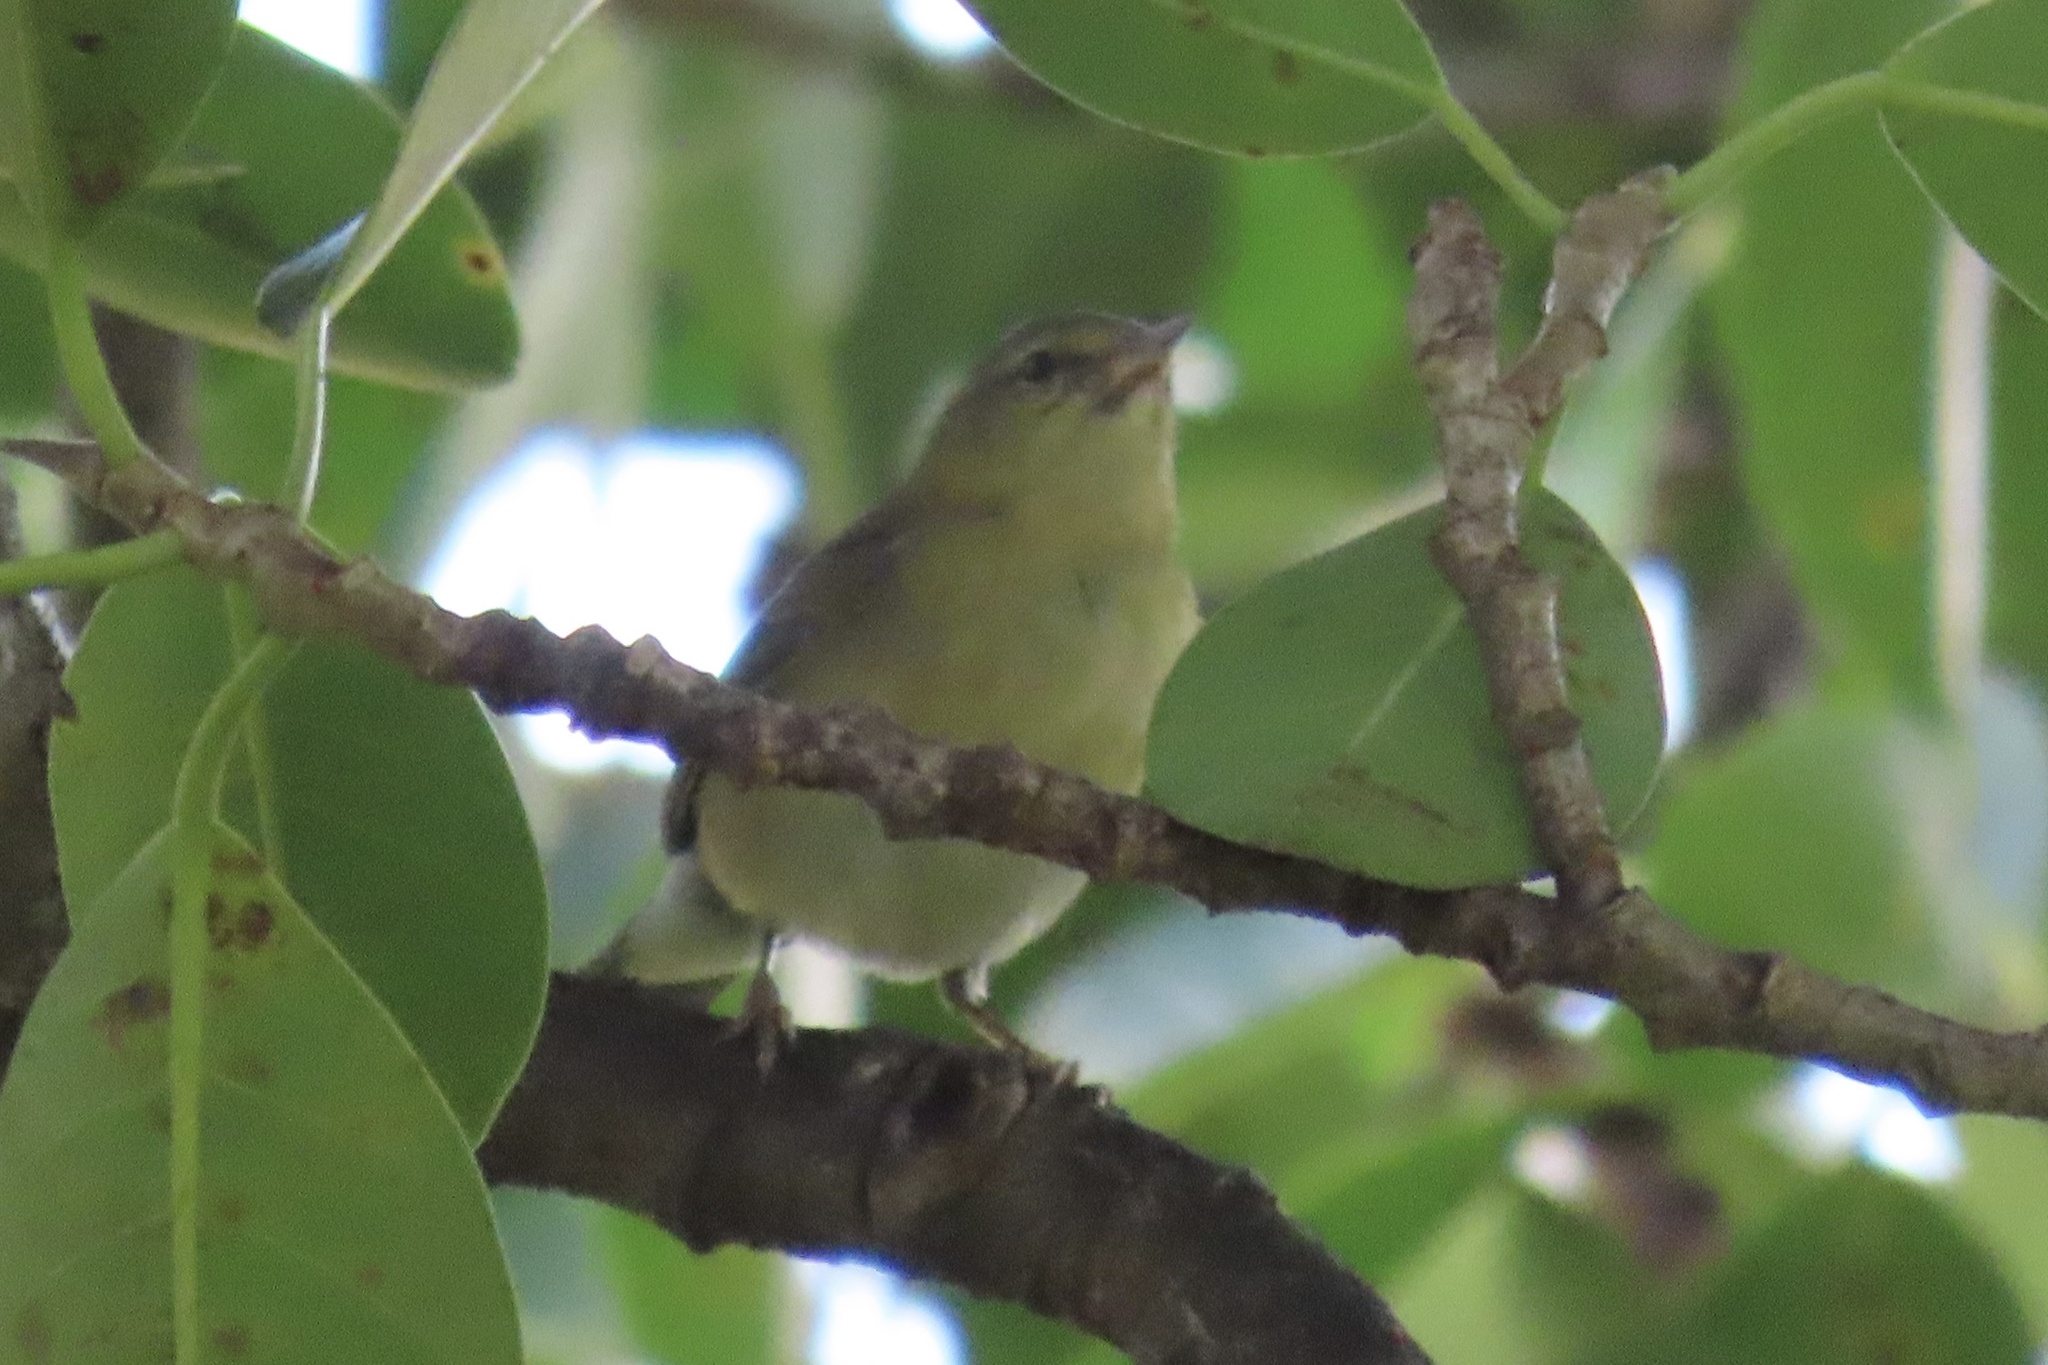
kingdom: Animalia
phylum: Chordata
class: Aves
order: Passeriformes
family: Parulidae
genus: Leiothlypis
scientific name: Leiothlypis peregrina
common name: Tennessee warbler
